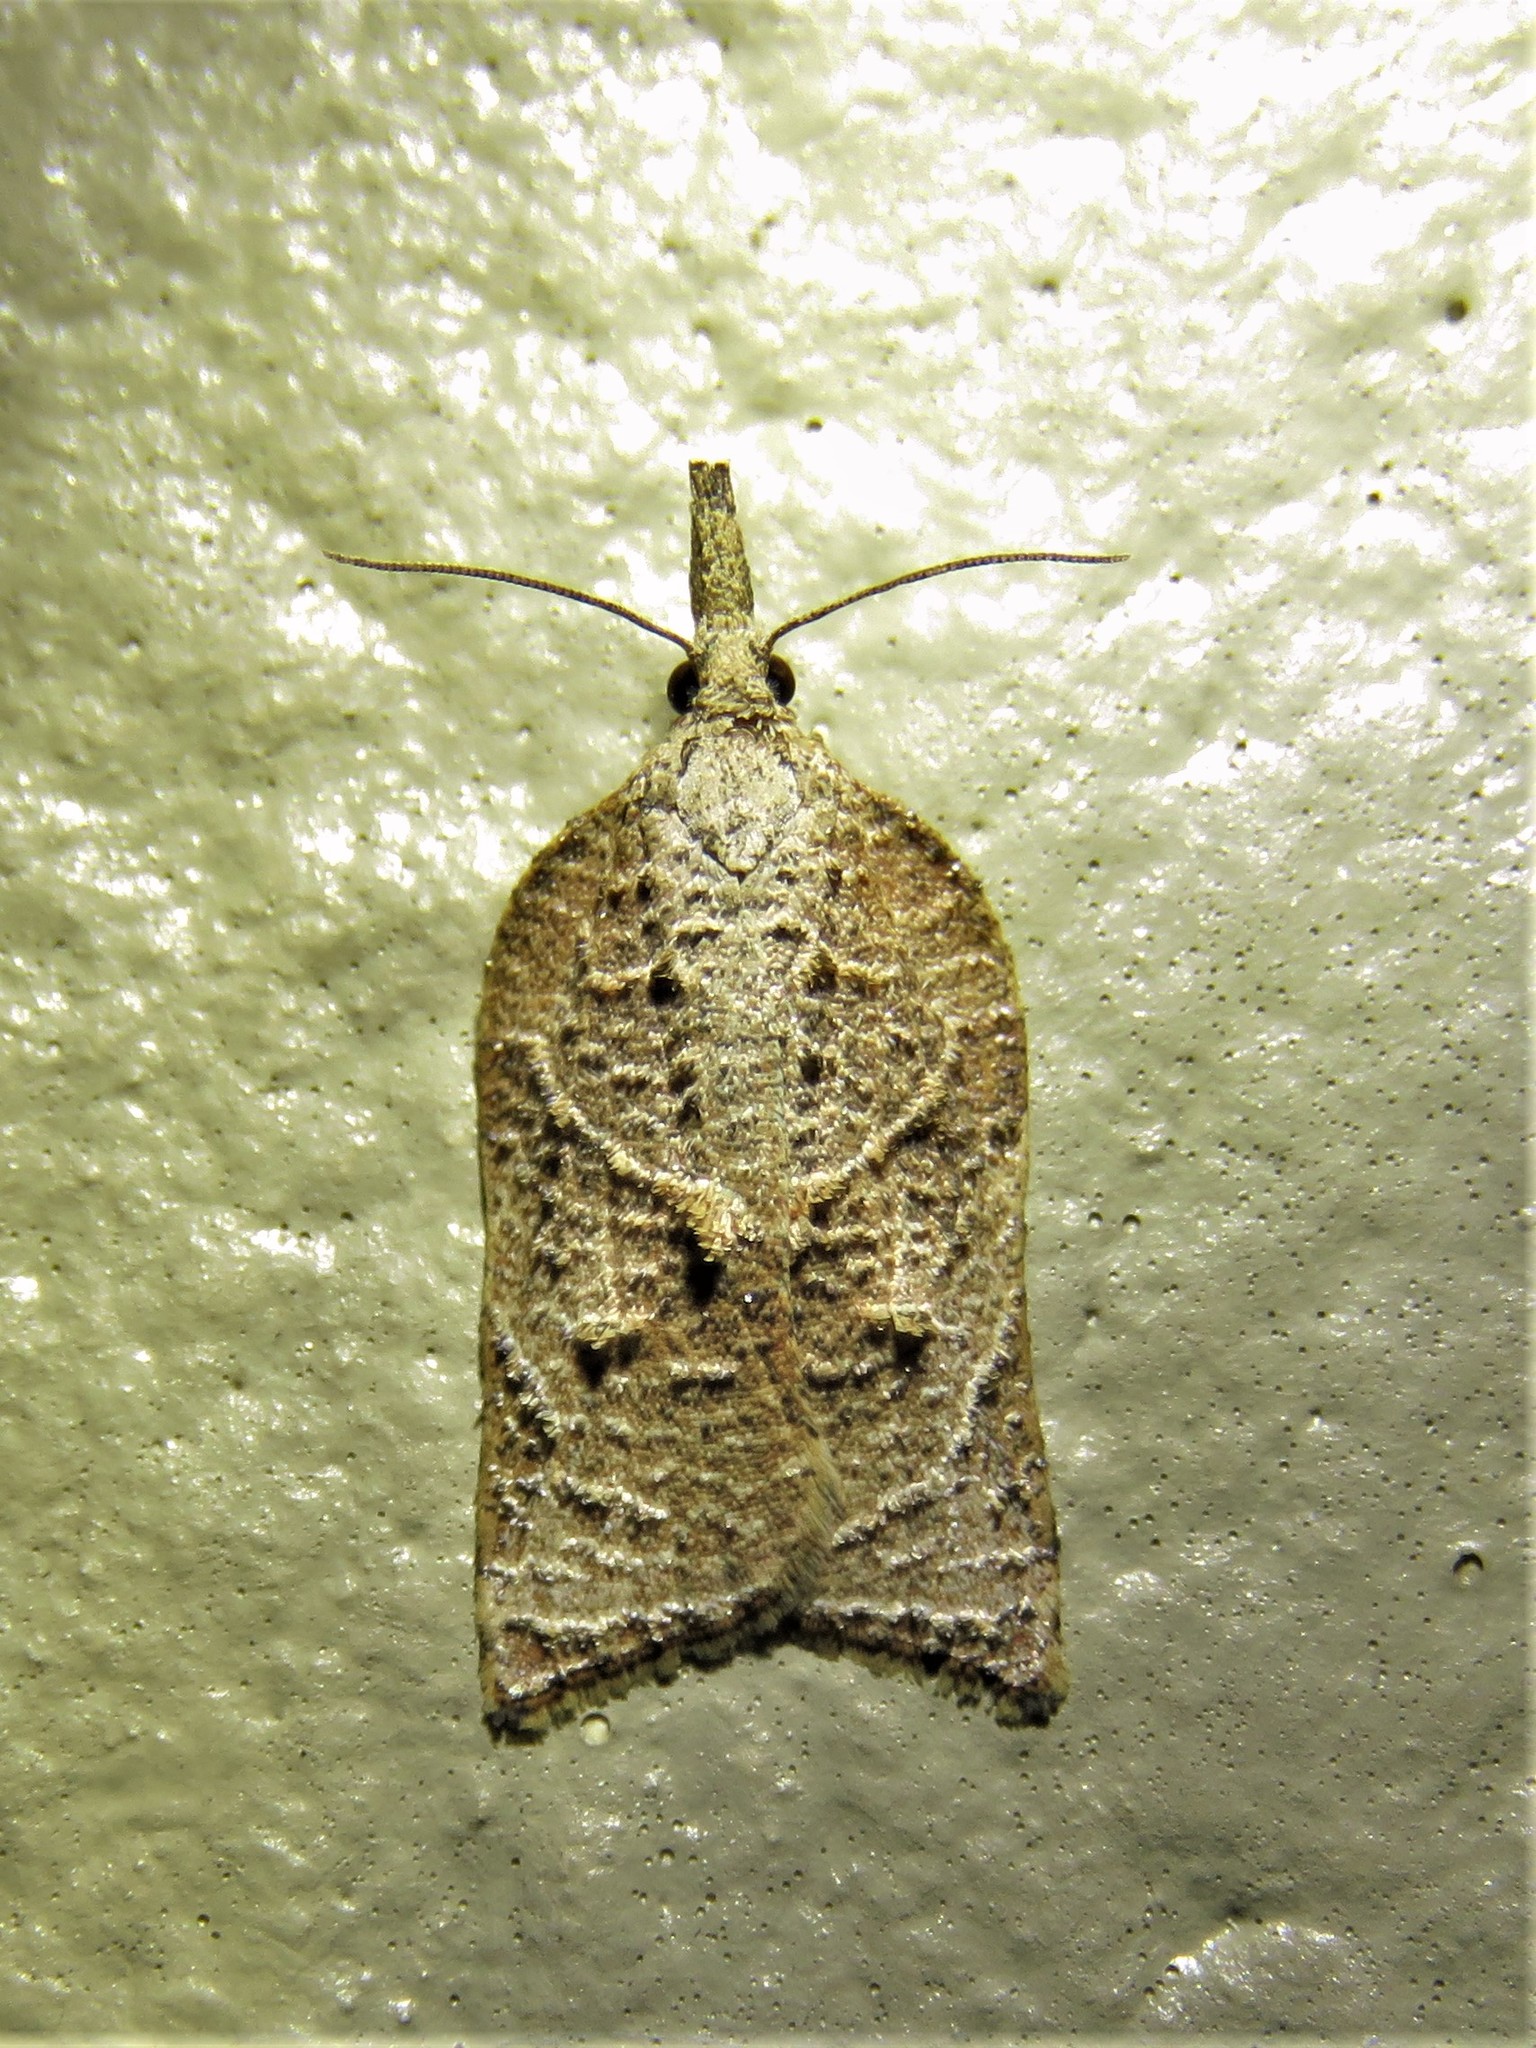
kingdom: Animalia
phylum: Arthropoda
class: Insecta
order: Lepidoptera
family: Tortricidae
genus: Platynota
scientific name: Platynota rostrana
